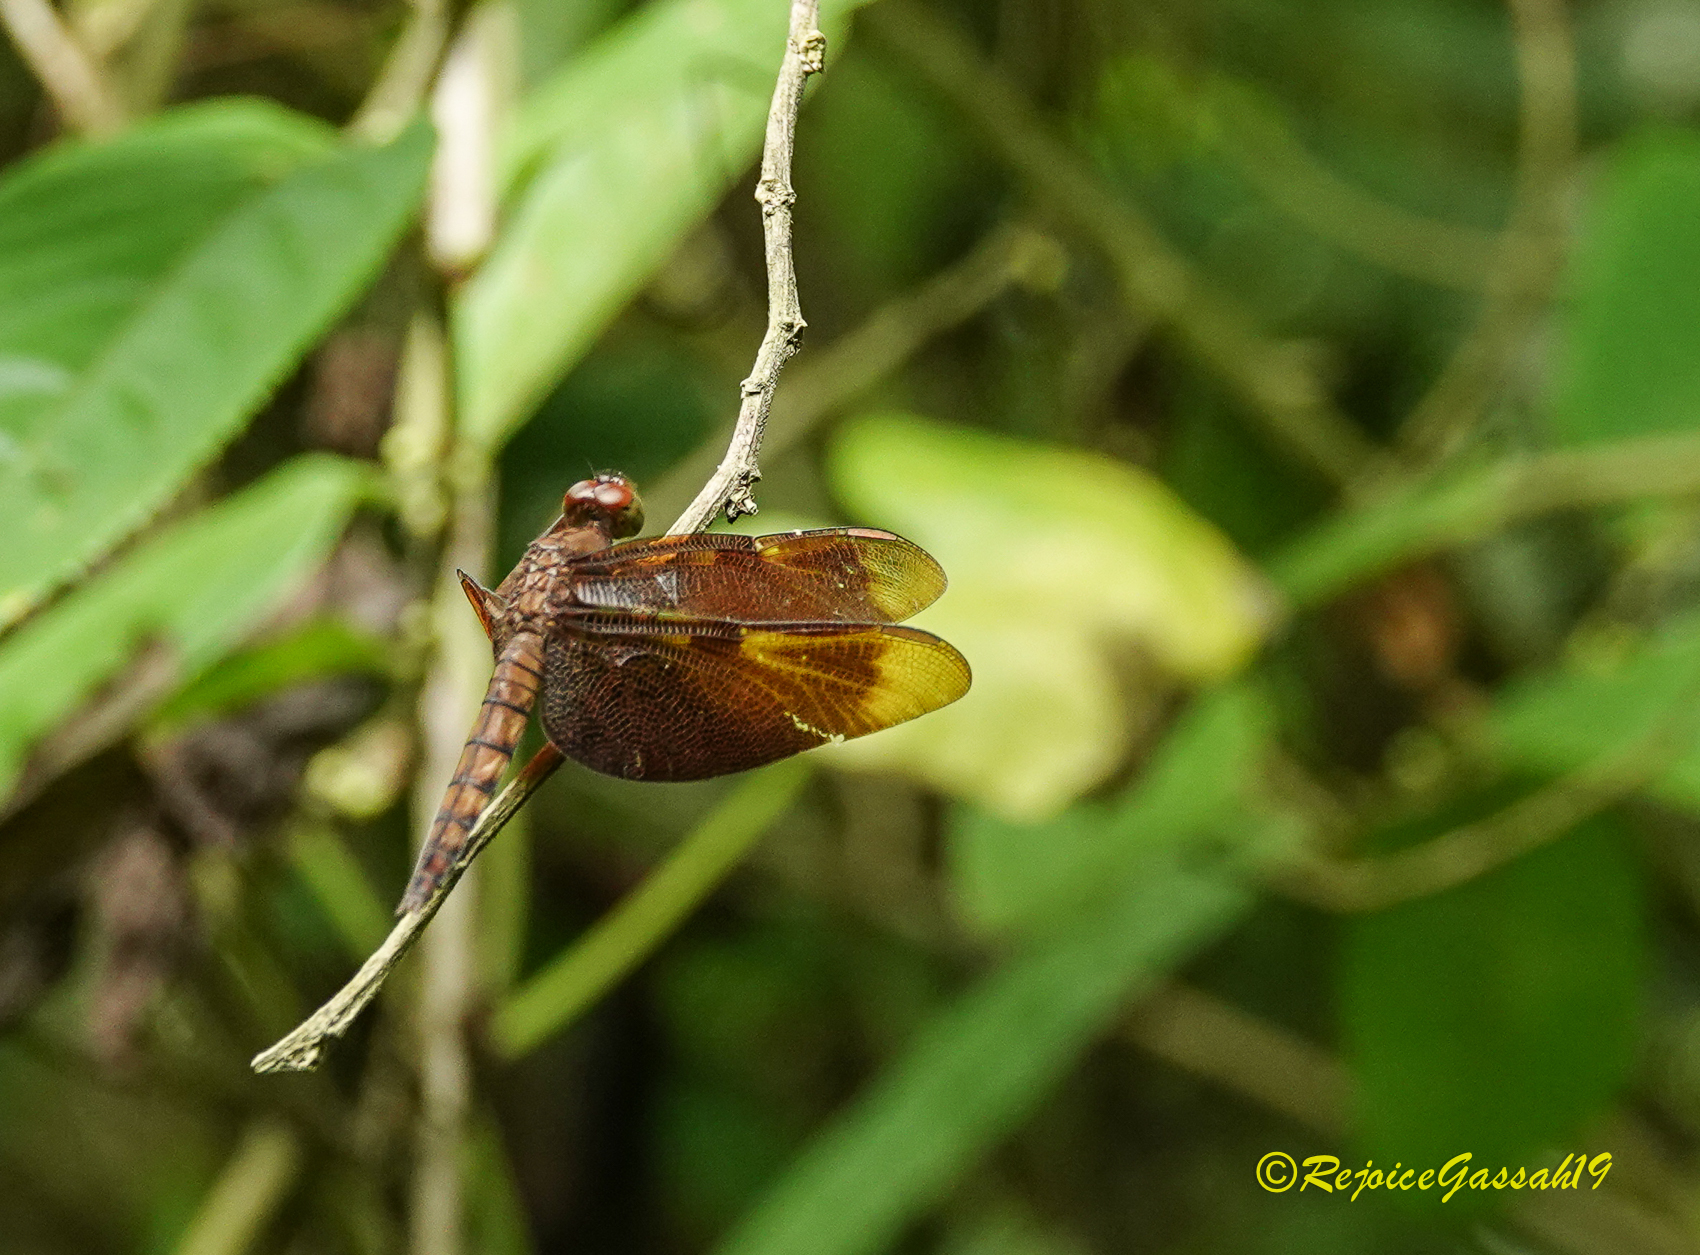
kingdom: Animalia
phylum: Arthropoda
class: Insecta
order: Odonata
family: Libellulidae
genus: Neurothemis
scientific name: Neurothemis fulvia
